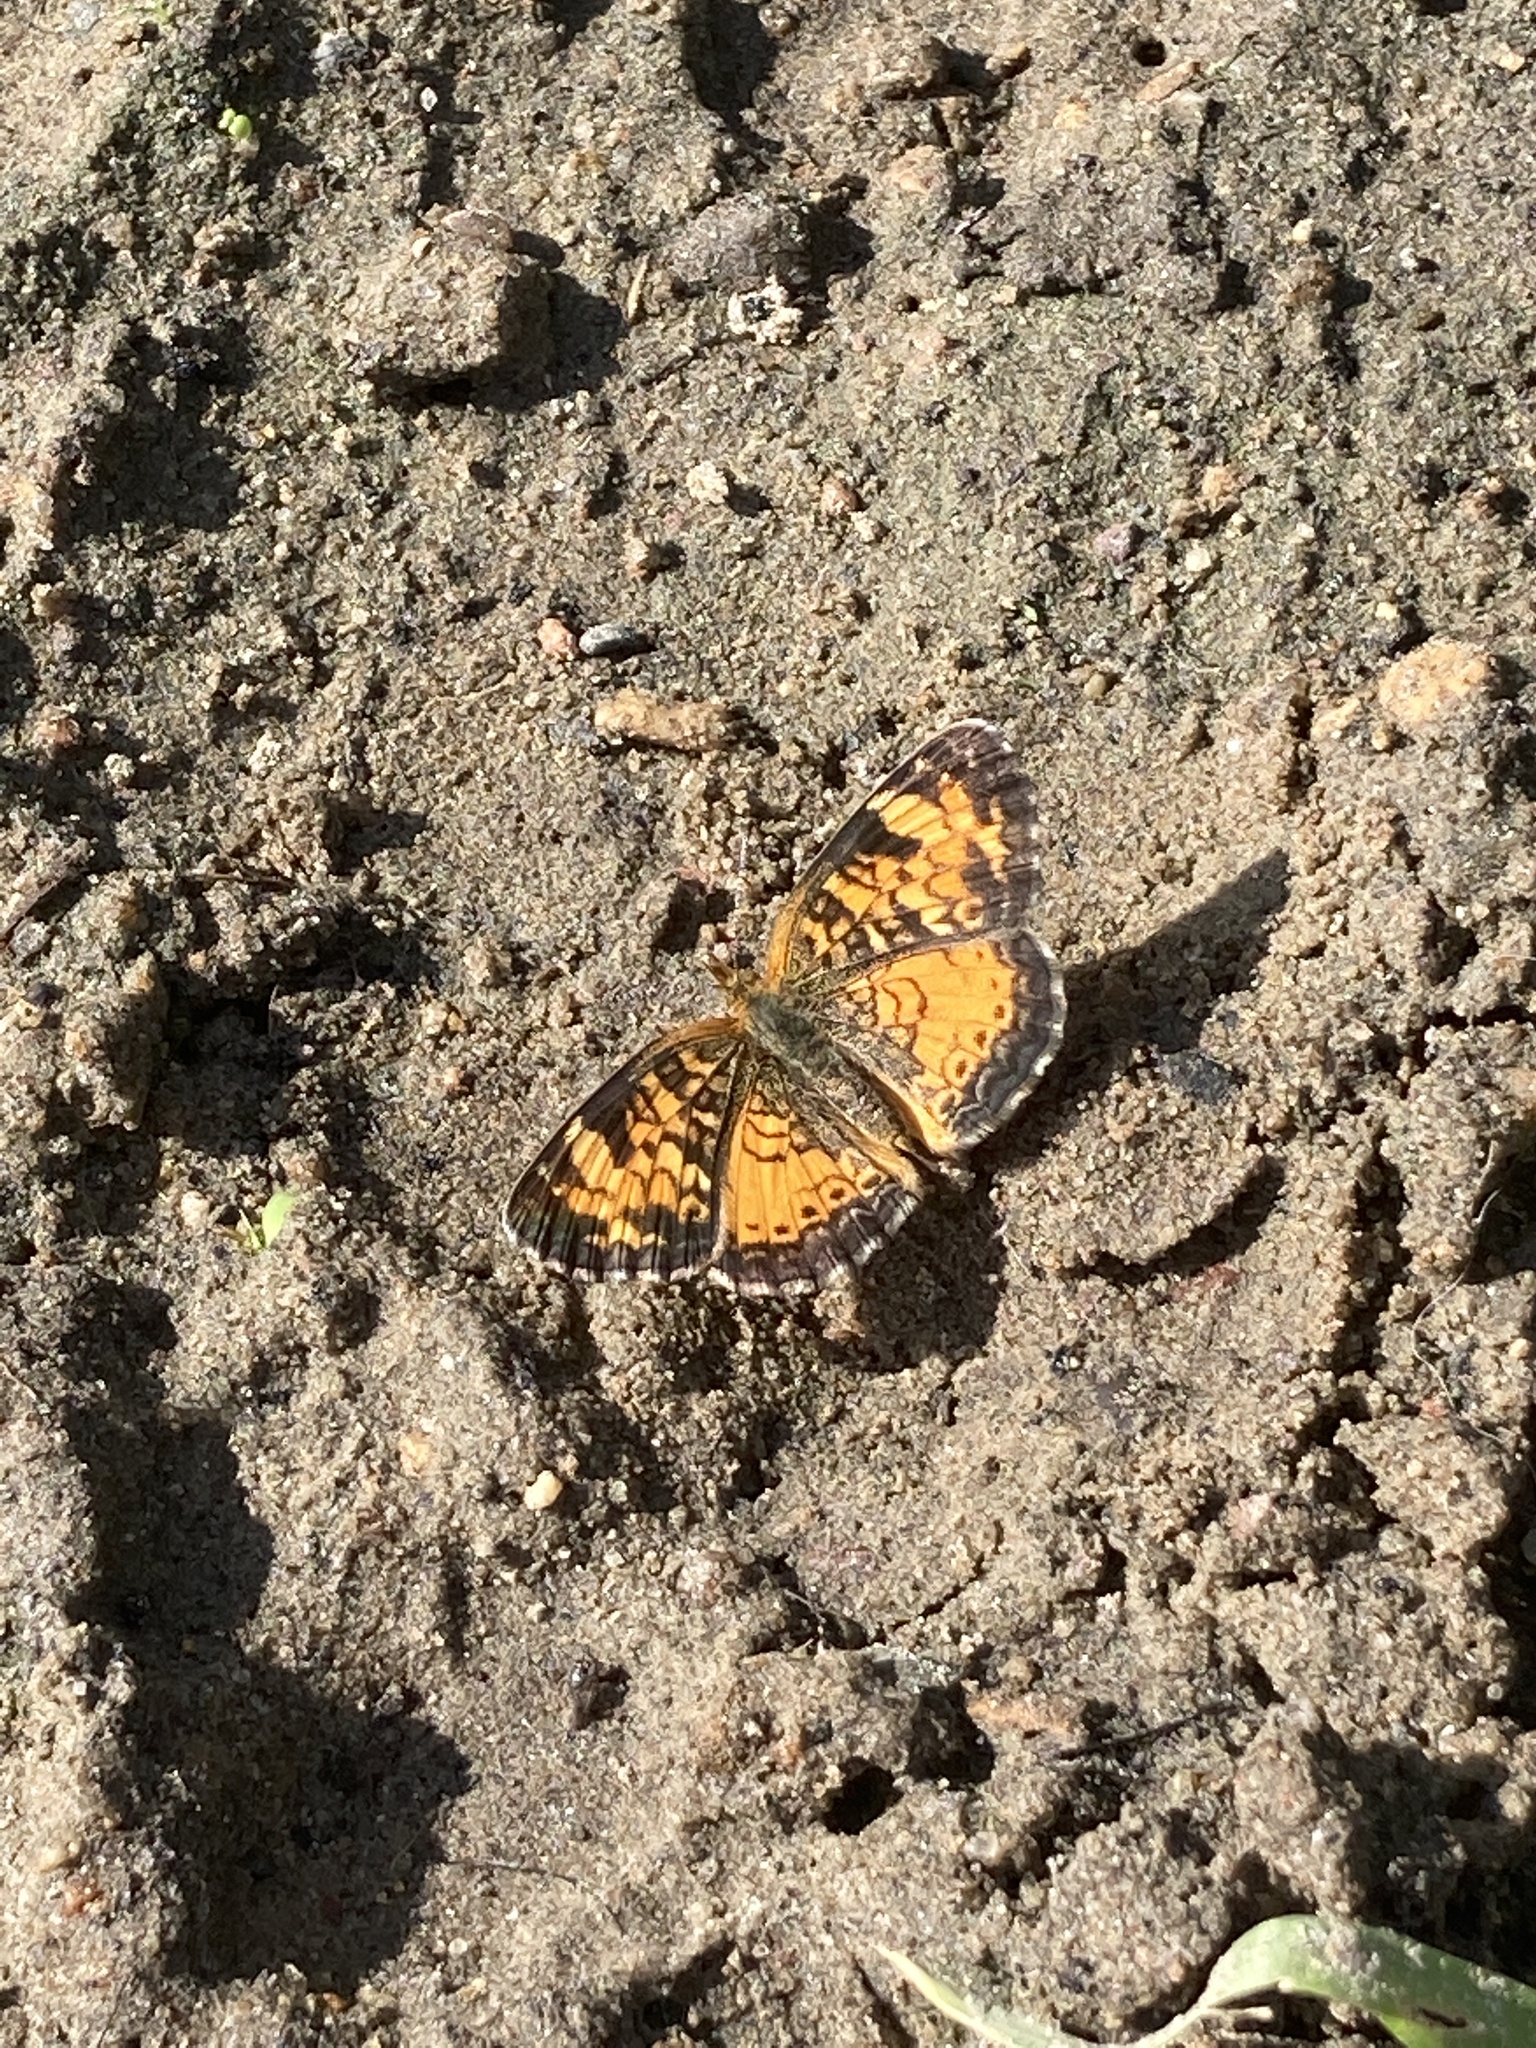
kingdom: Animalia
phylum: Arthropoda
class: Insecta
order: Lepidoptera
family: Nymphalidae
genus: Phyciodes
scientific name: Phyciodes tharos
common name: Pearl crescent
